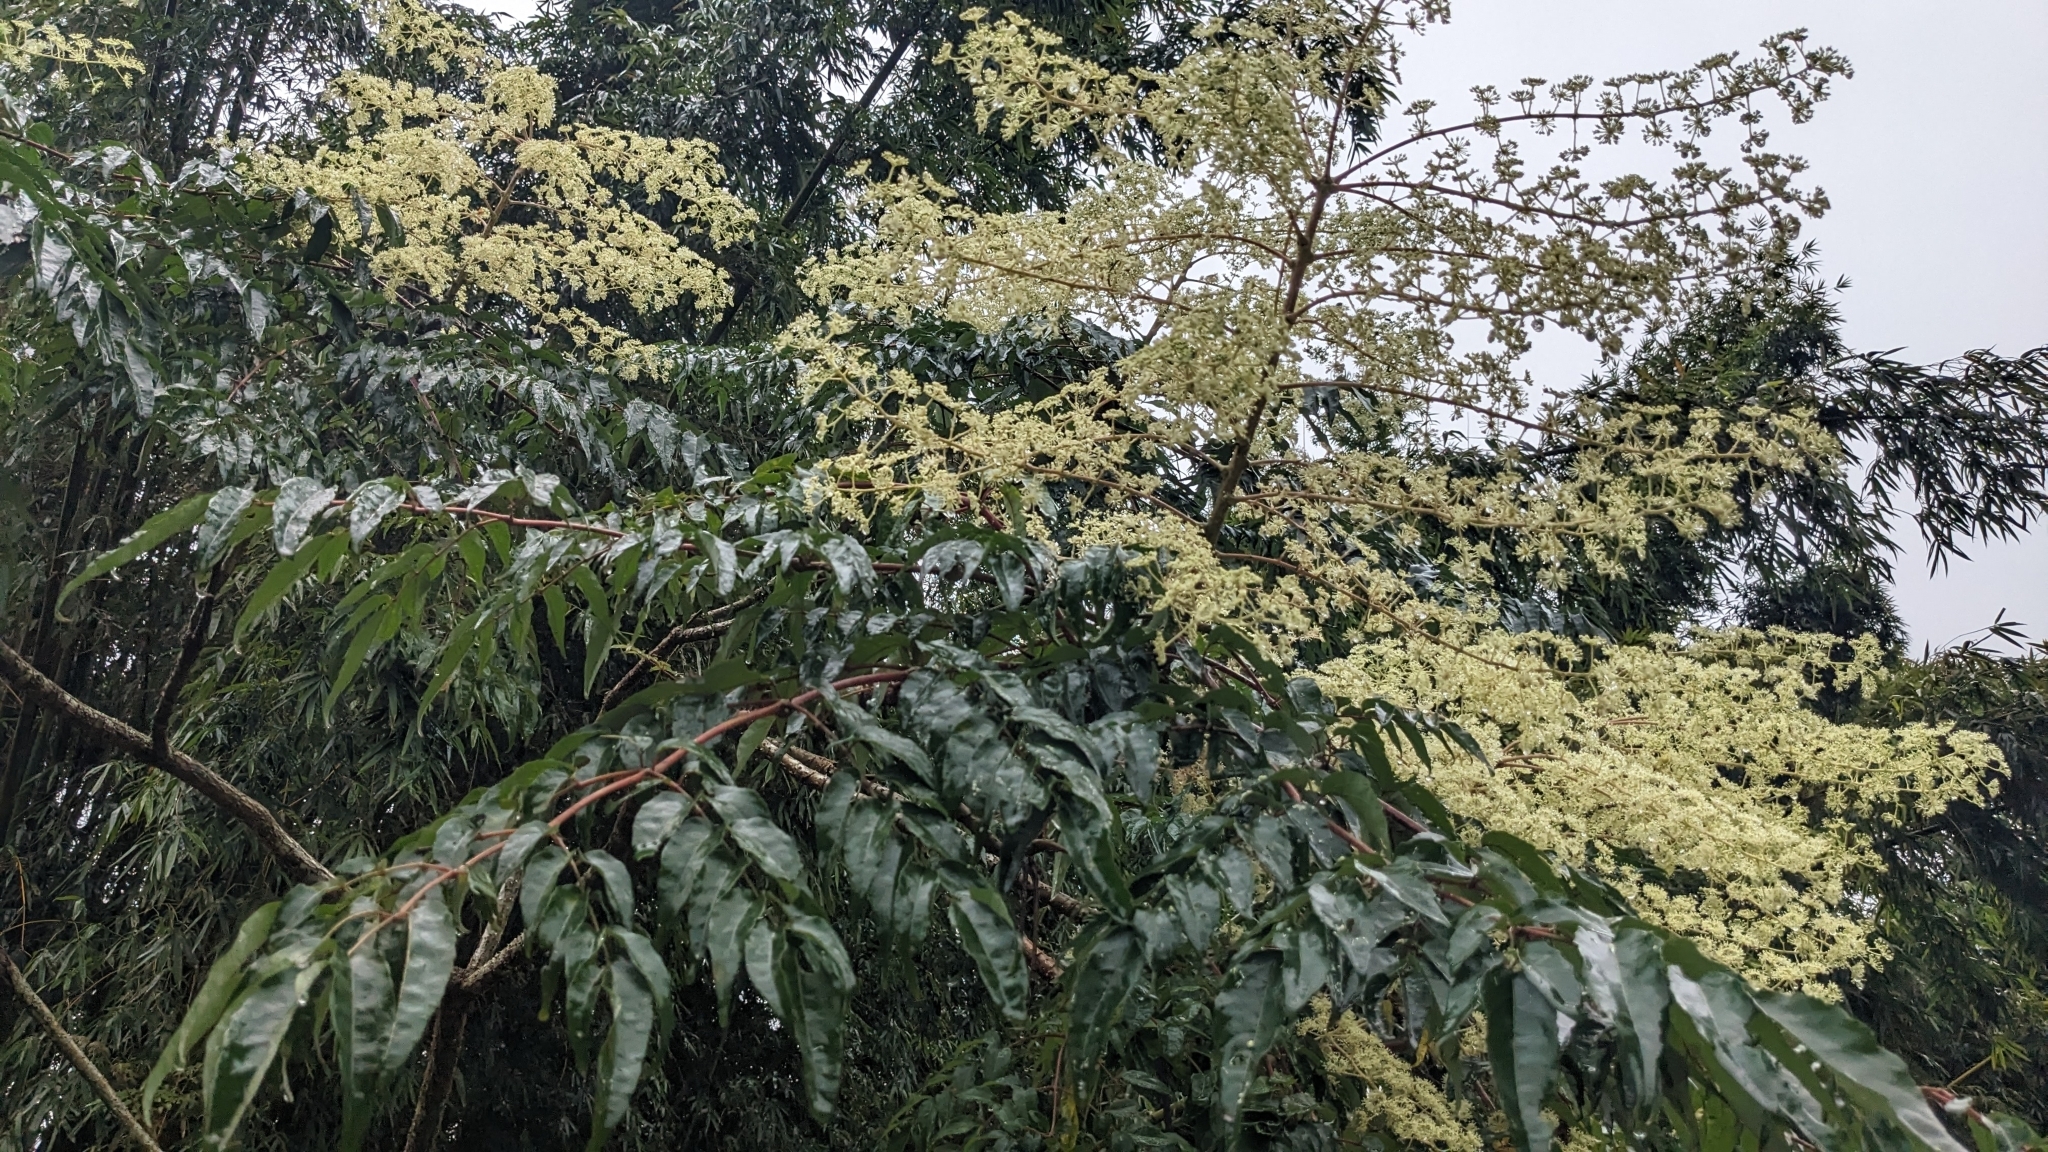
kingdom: Plantae
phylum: Tracheophyta
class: Magnoliopsida
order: Apiales
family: Araliaceae
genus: Aralia
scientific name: Aralia bipinnata
